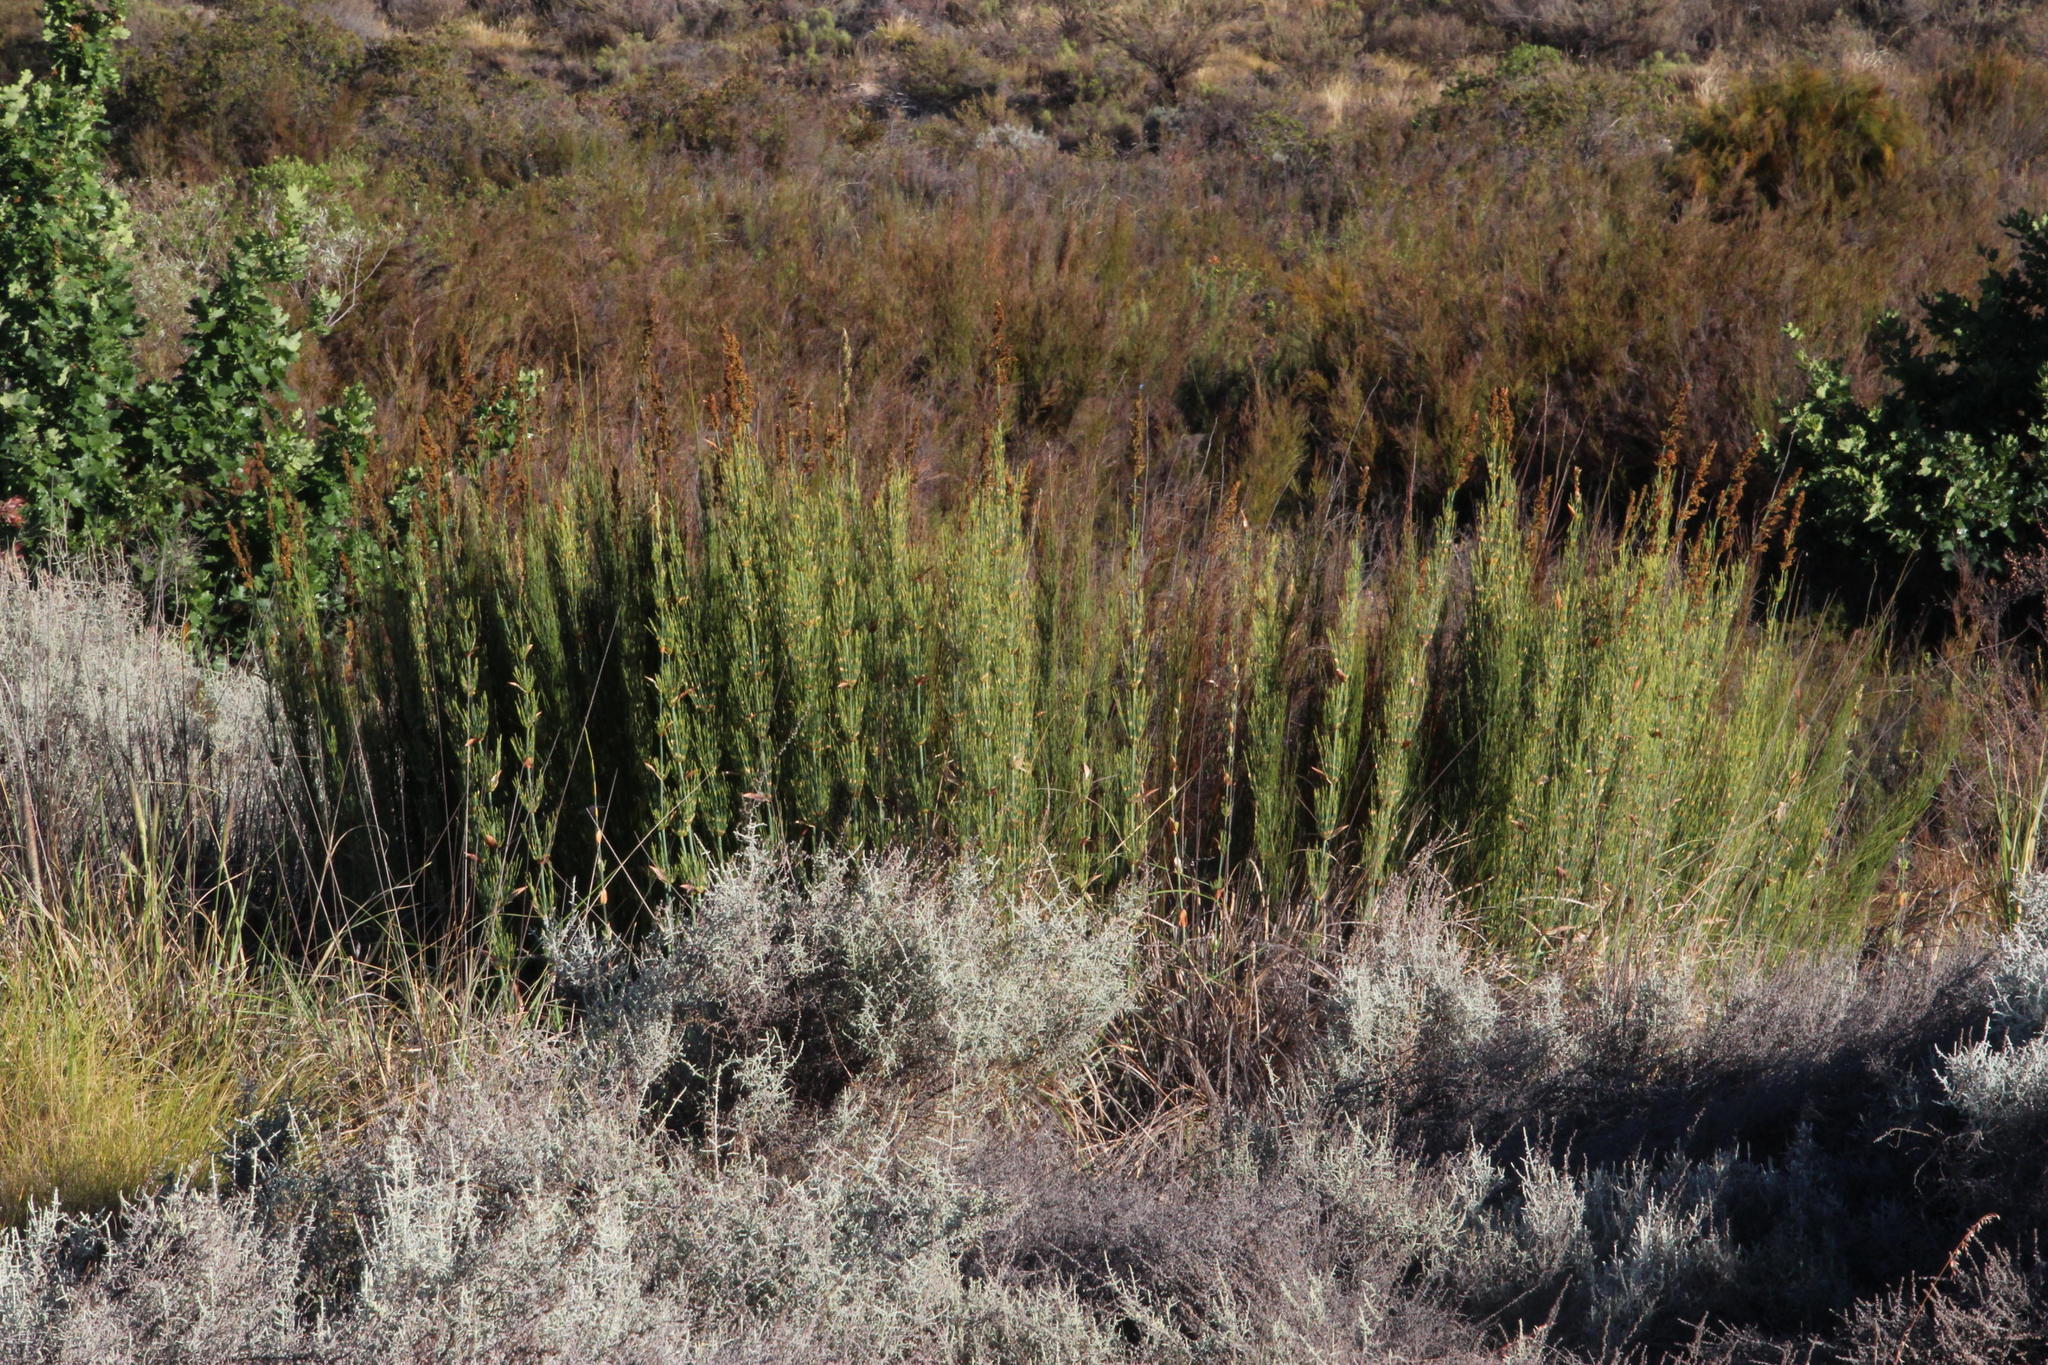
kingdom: Plantae
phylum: Tracheophyta
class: Liliopsida
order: Poales
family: Restionaceae
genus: Elegia
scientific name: Elegia capensis
